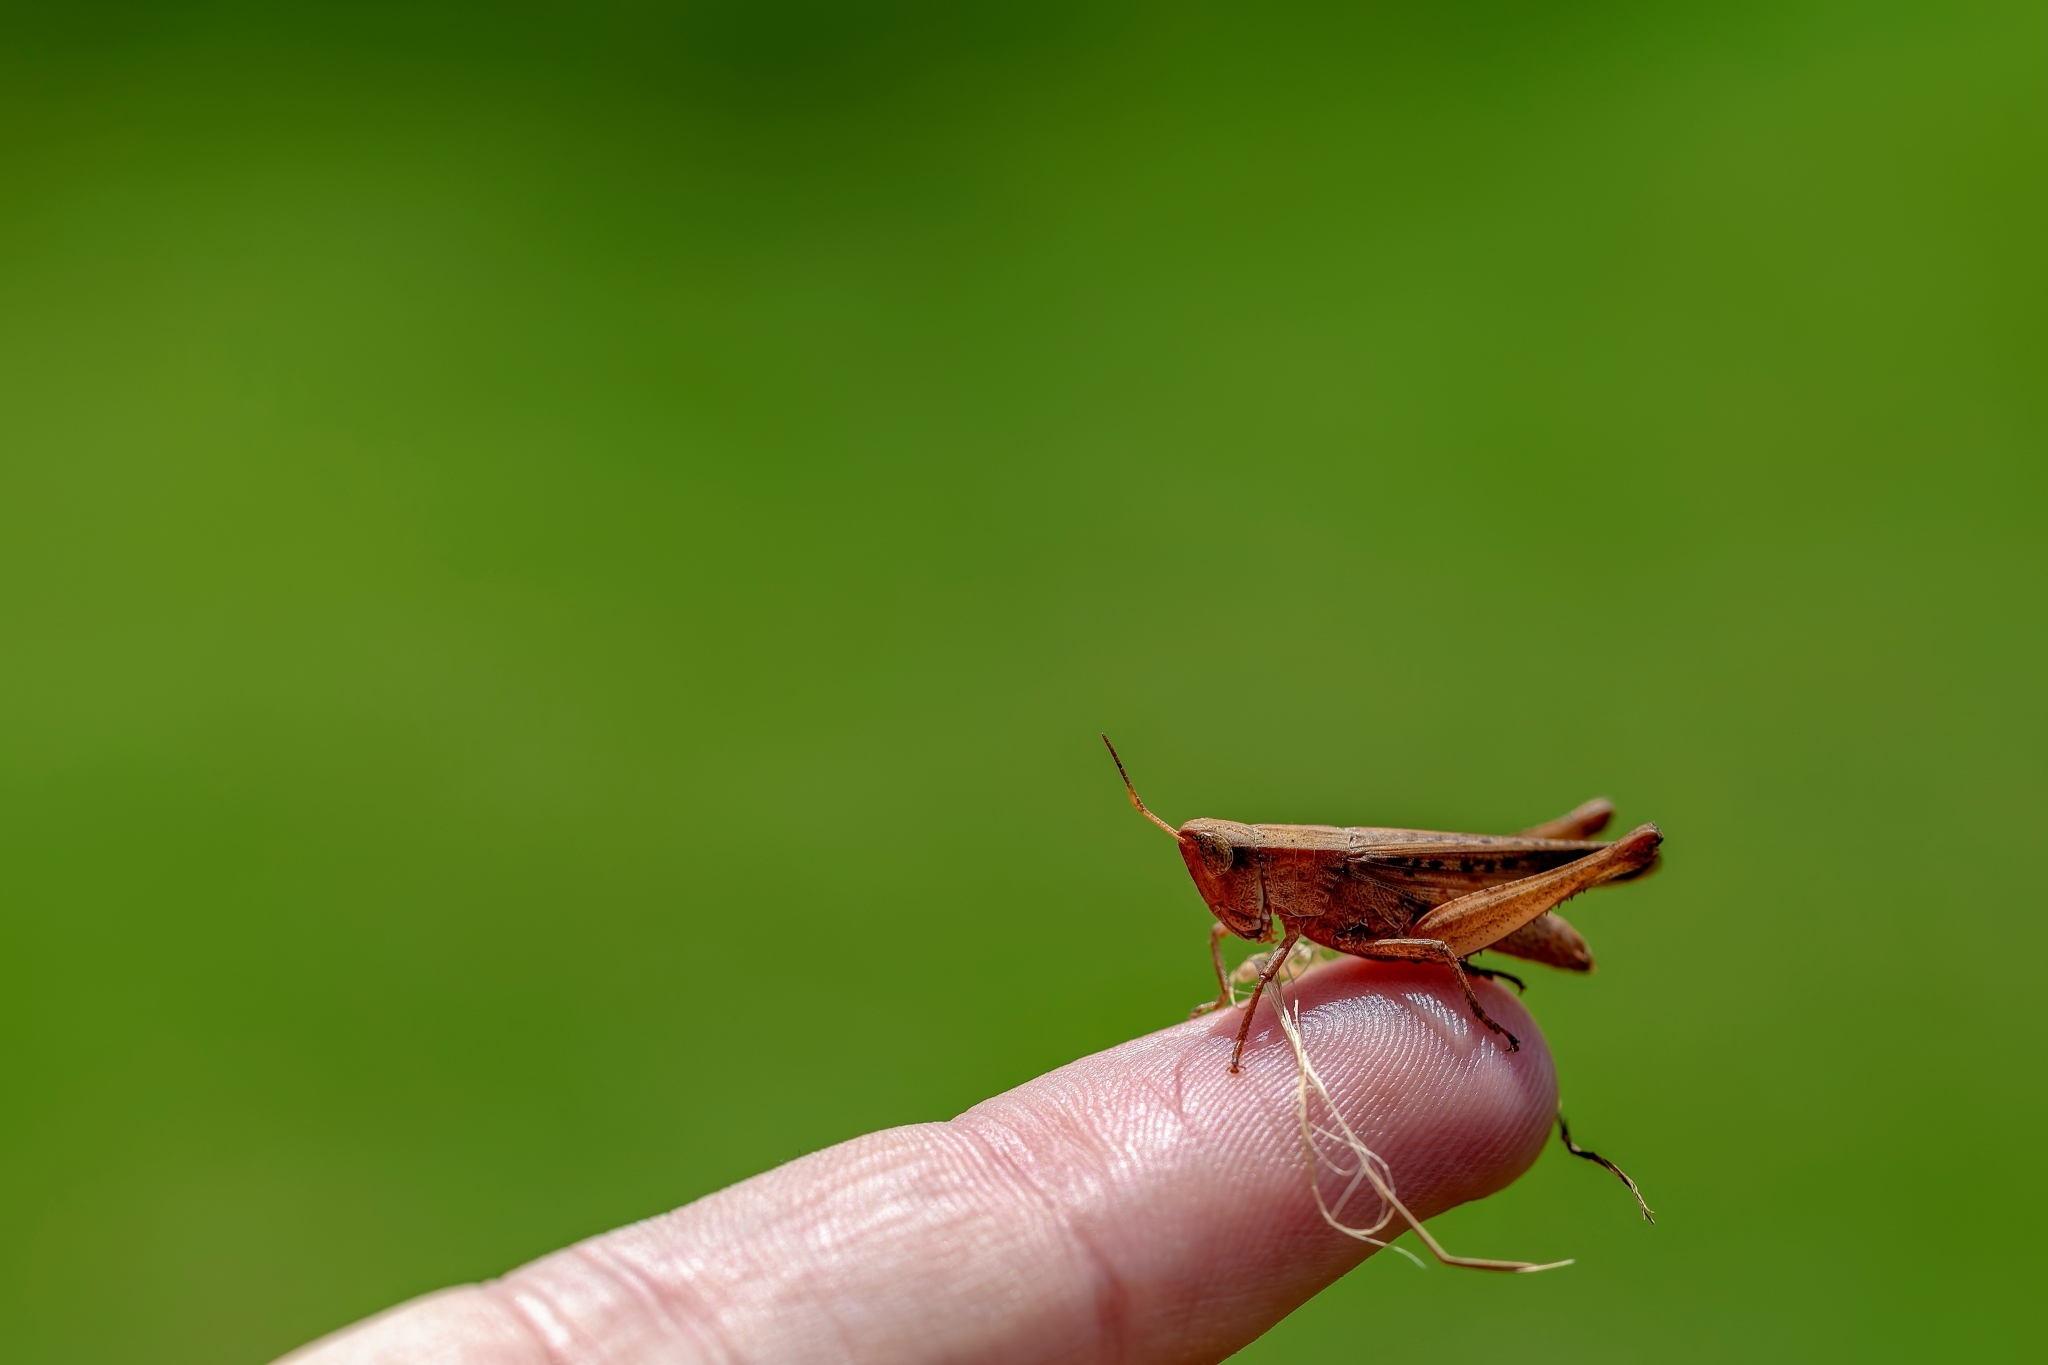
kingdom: Animalia
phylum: Arthropoda
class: Insecta
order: Orthoptera
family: Acrididae
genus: Dichromorpha
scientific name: Dichromorpha viridis
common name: Short-winged green grasshopper
